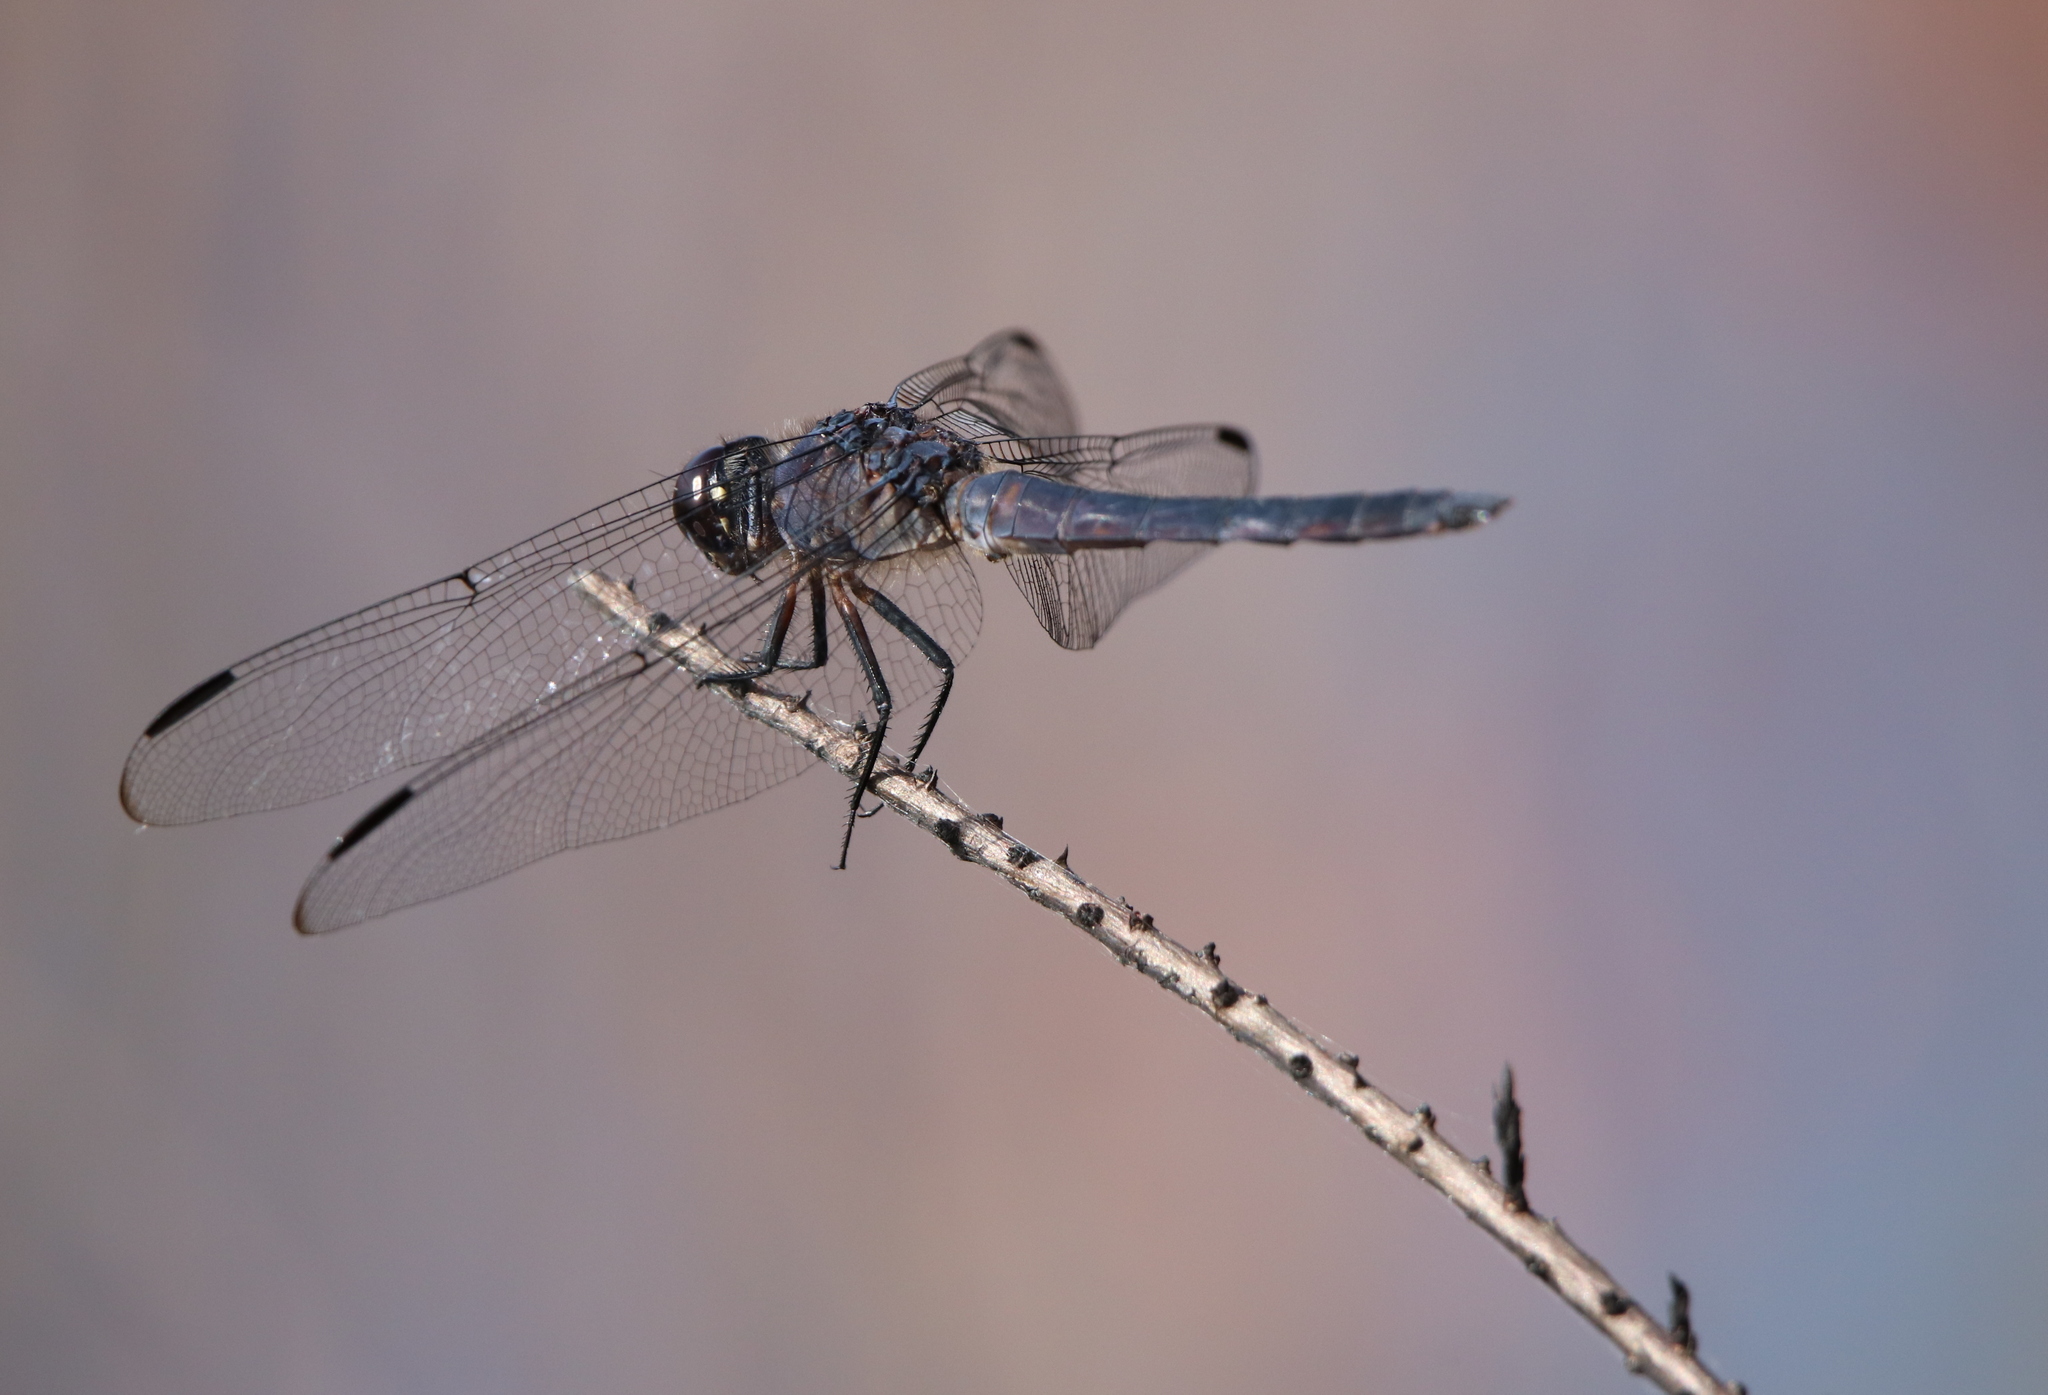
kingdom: Animalia
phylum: Arthropoda
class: Insecta
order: Odonata
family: Libellulidae
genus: Libellula
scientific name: Libellula incesta
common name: Slaty skimmer
